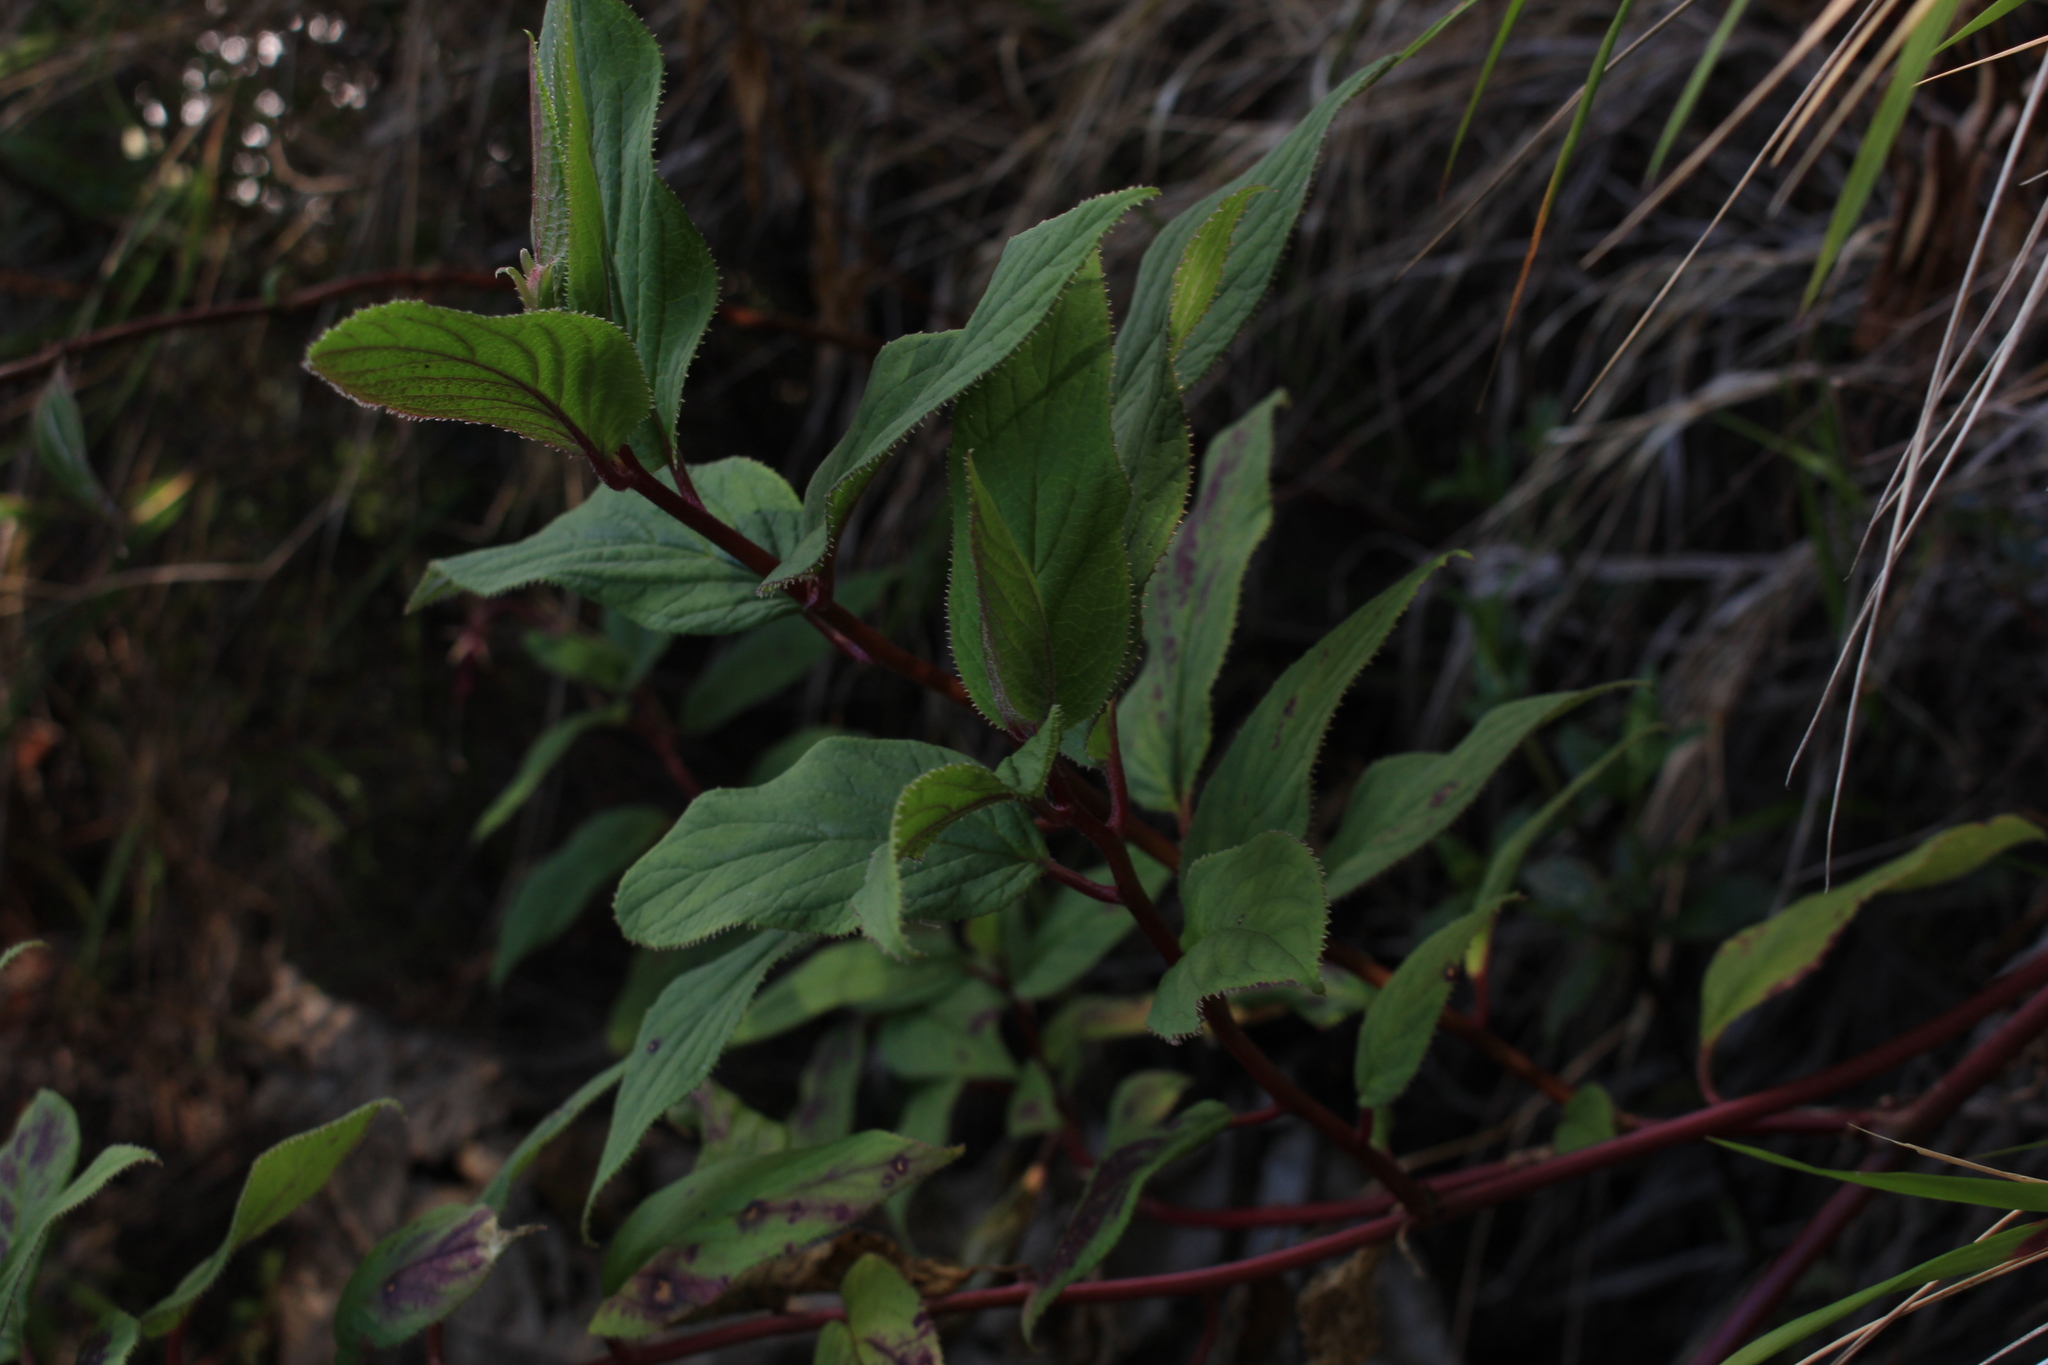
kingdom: Plantae
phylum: Tracheophyta
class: Magnoliopsida
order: Asterales
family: Campanulaceae
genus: Centropogon
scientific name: Centropogon gutierrezii
